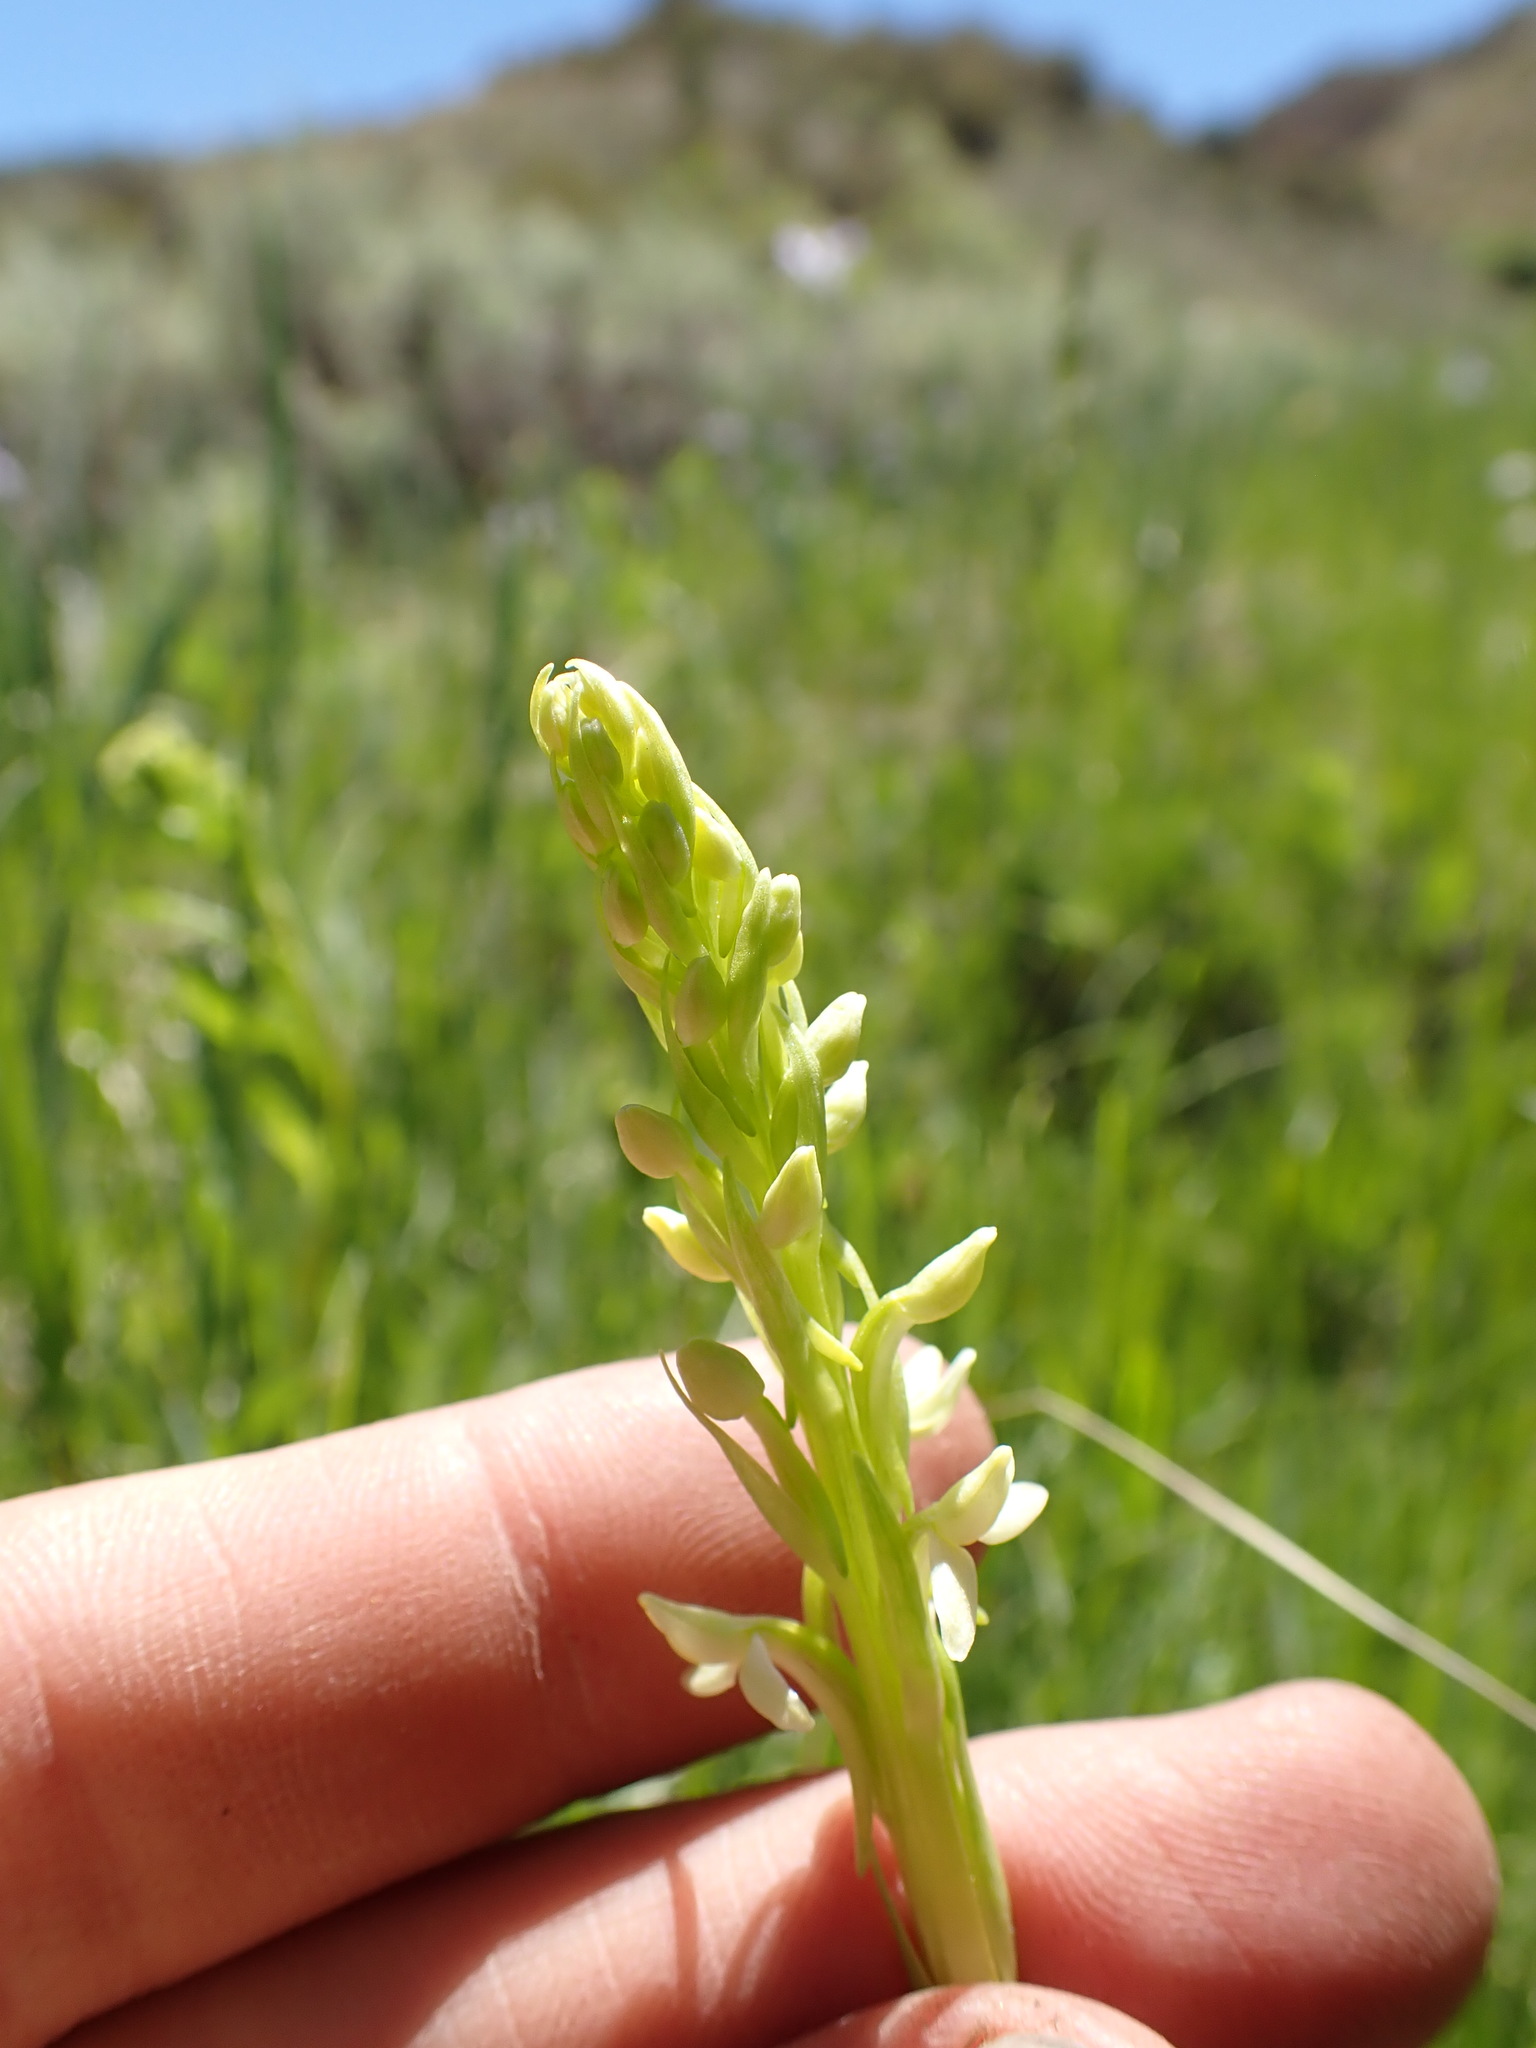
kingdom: Plantae
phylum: Tracheophyta
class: Liliopsida
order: Asparagales
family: Orchidaceae
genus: Platanthera
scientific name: Platanthera dilatata
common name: Bog candles
